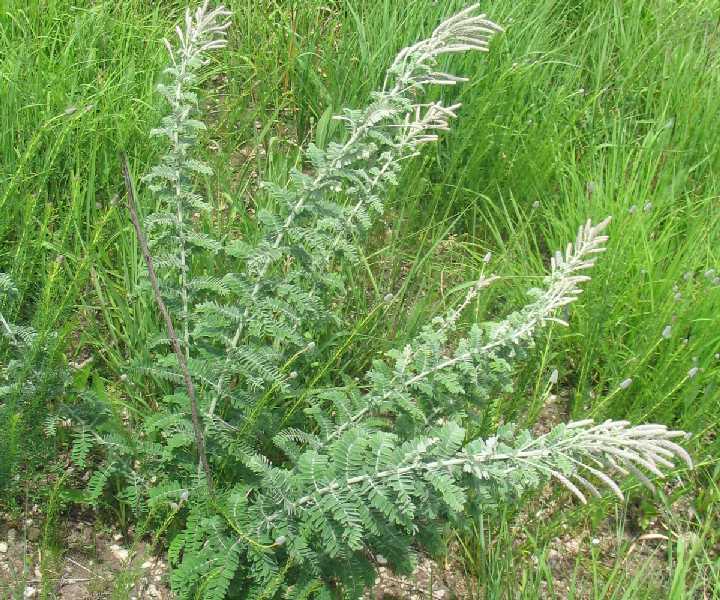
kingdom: Plantae
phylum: Tracheophyta
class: Magnoliopsida
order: Fabales
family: Fabaceae
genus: Amorpha
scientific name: Amorpha canescens
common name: Leadplant
